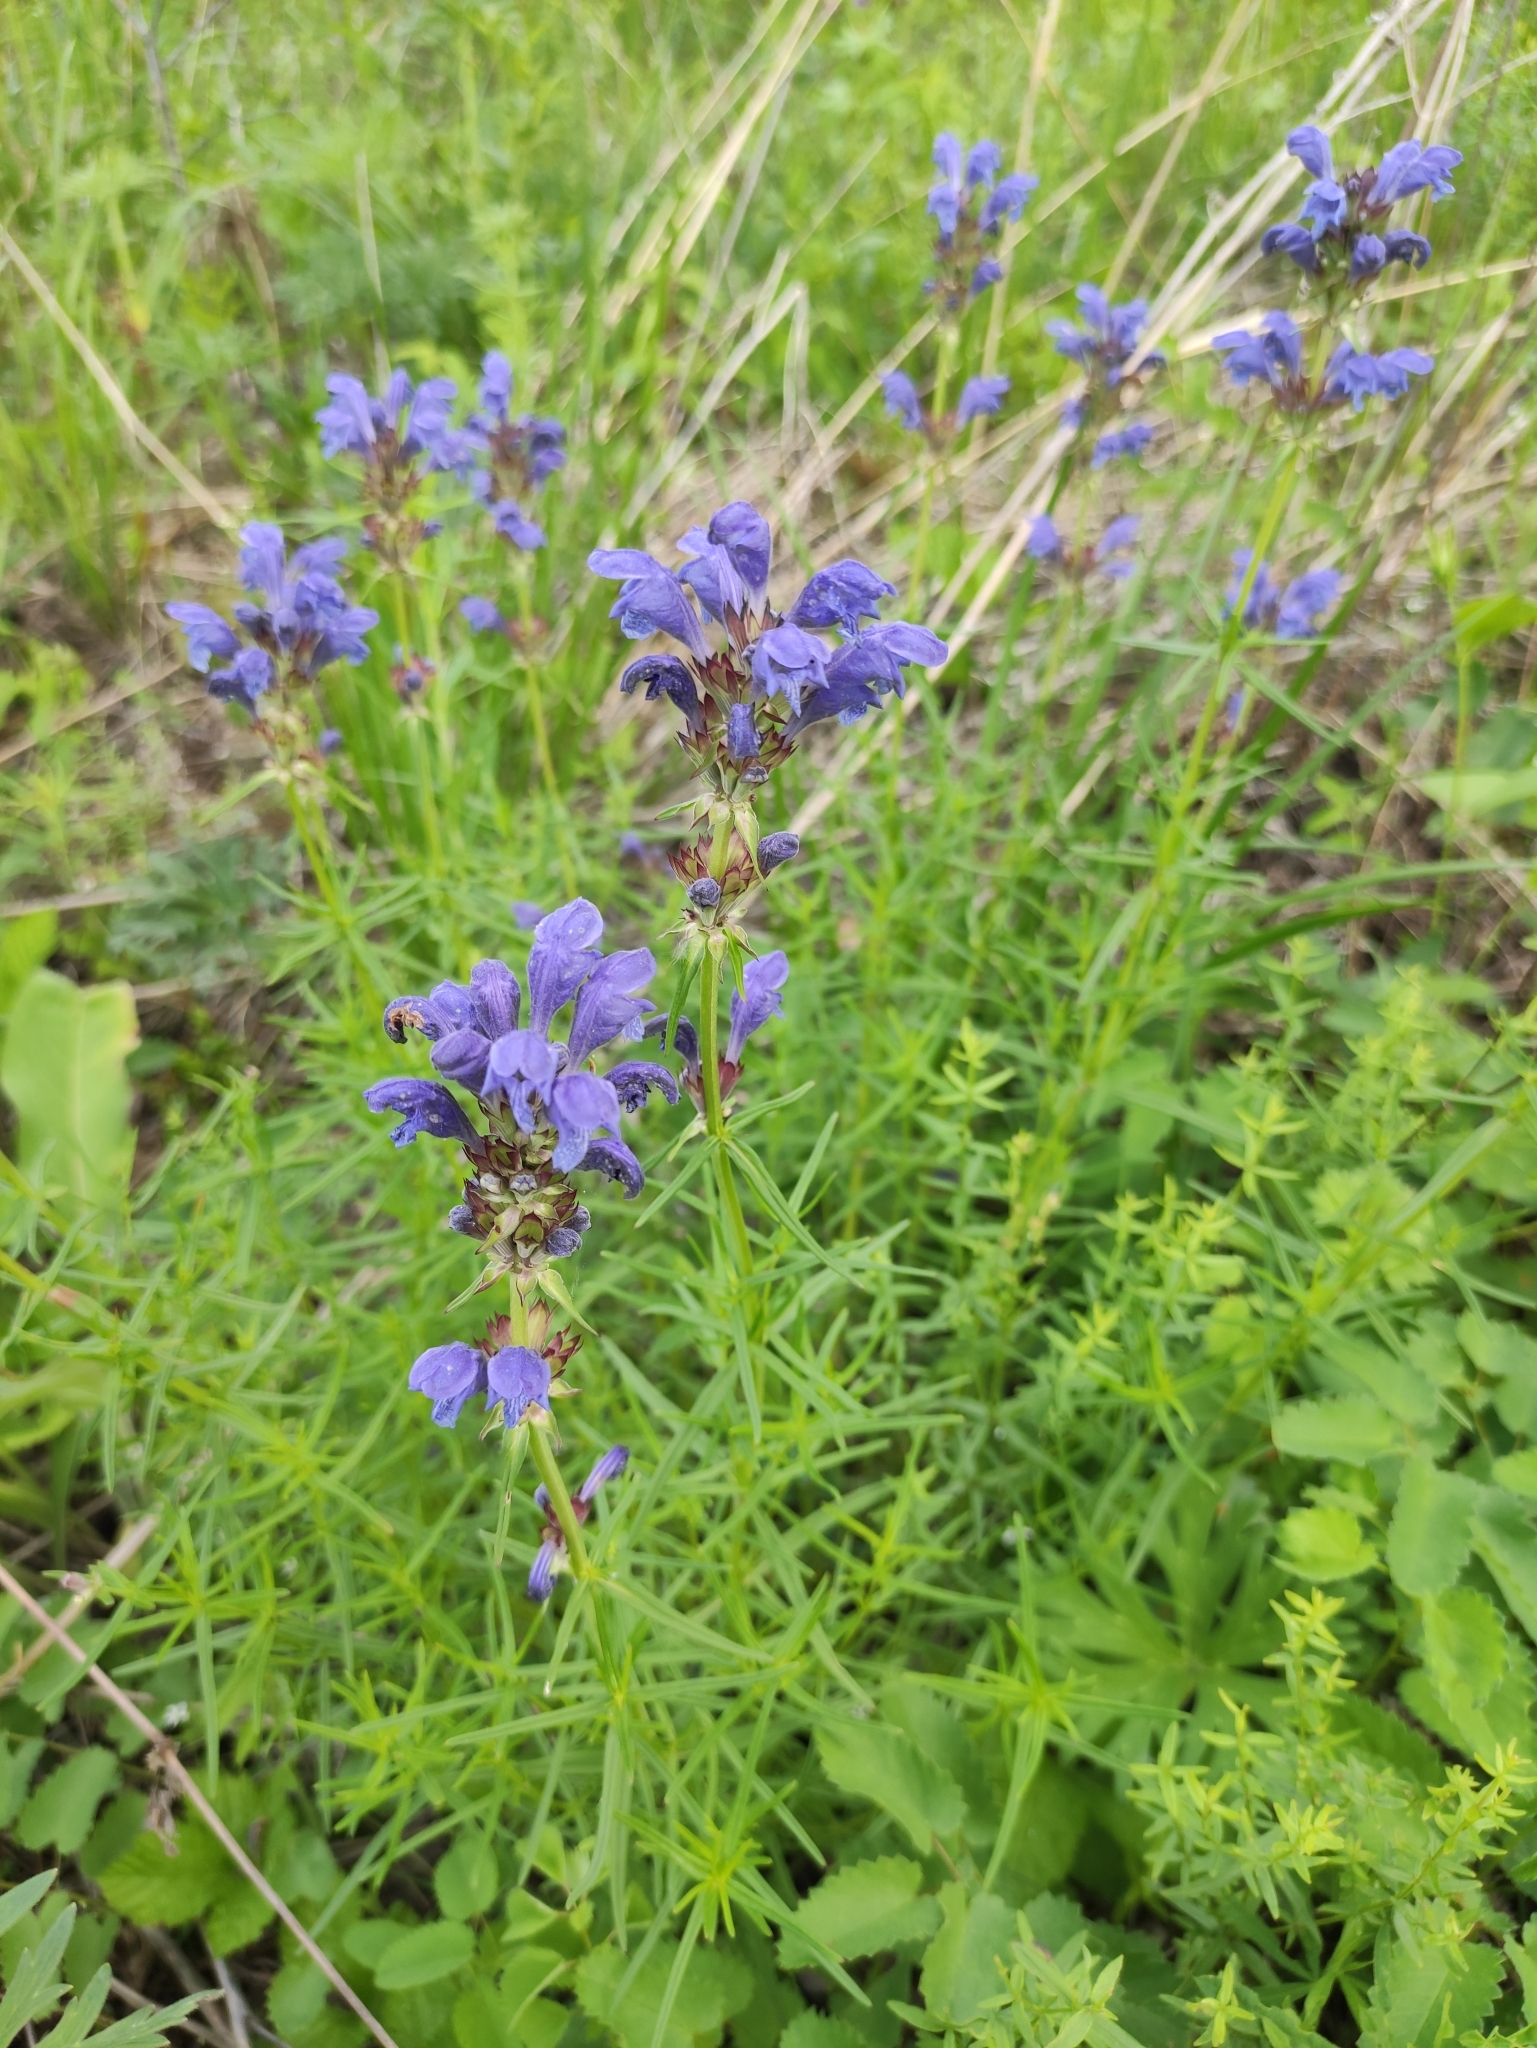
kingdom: Plantae
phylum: Tracheophyta
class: Magnoliopsida
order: Lamiales
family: Lamiaceae
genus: Dracocephalum
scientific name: Dracocephalum ruyschiana
